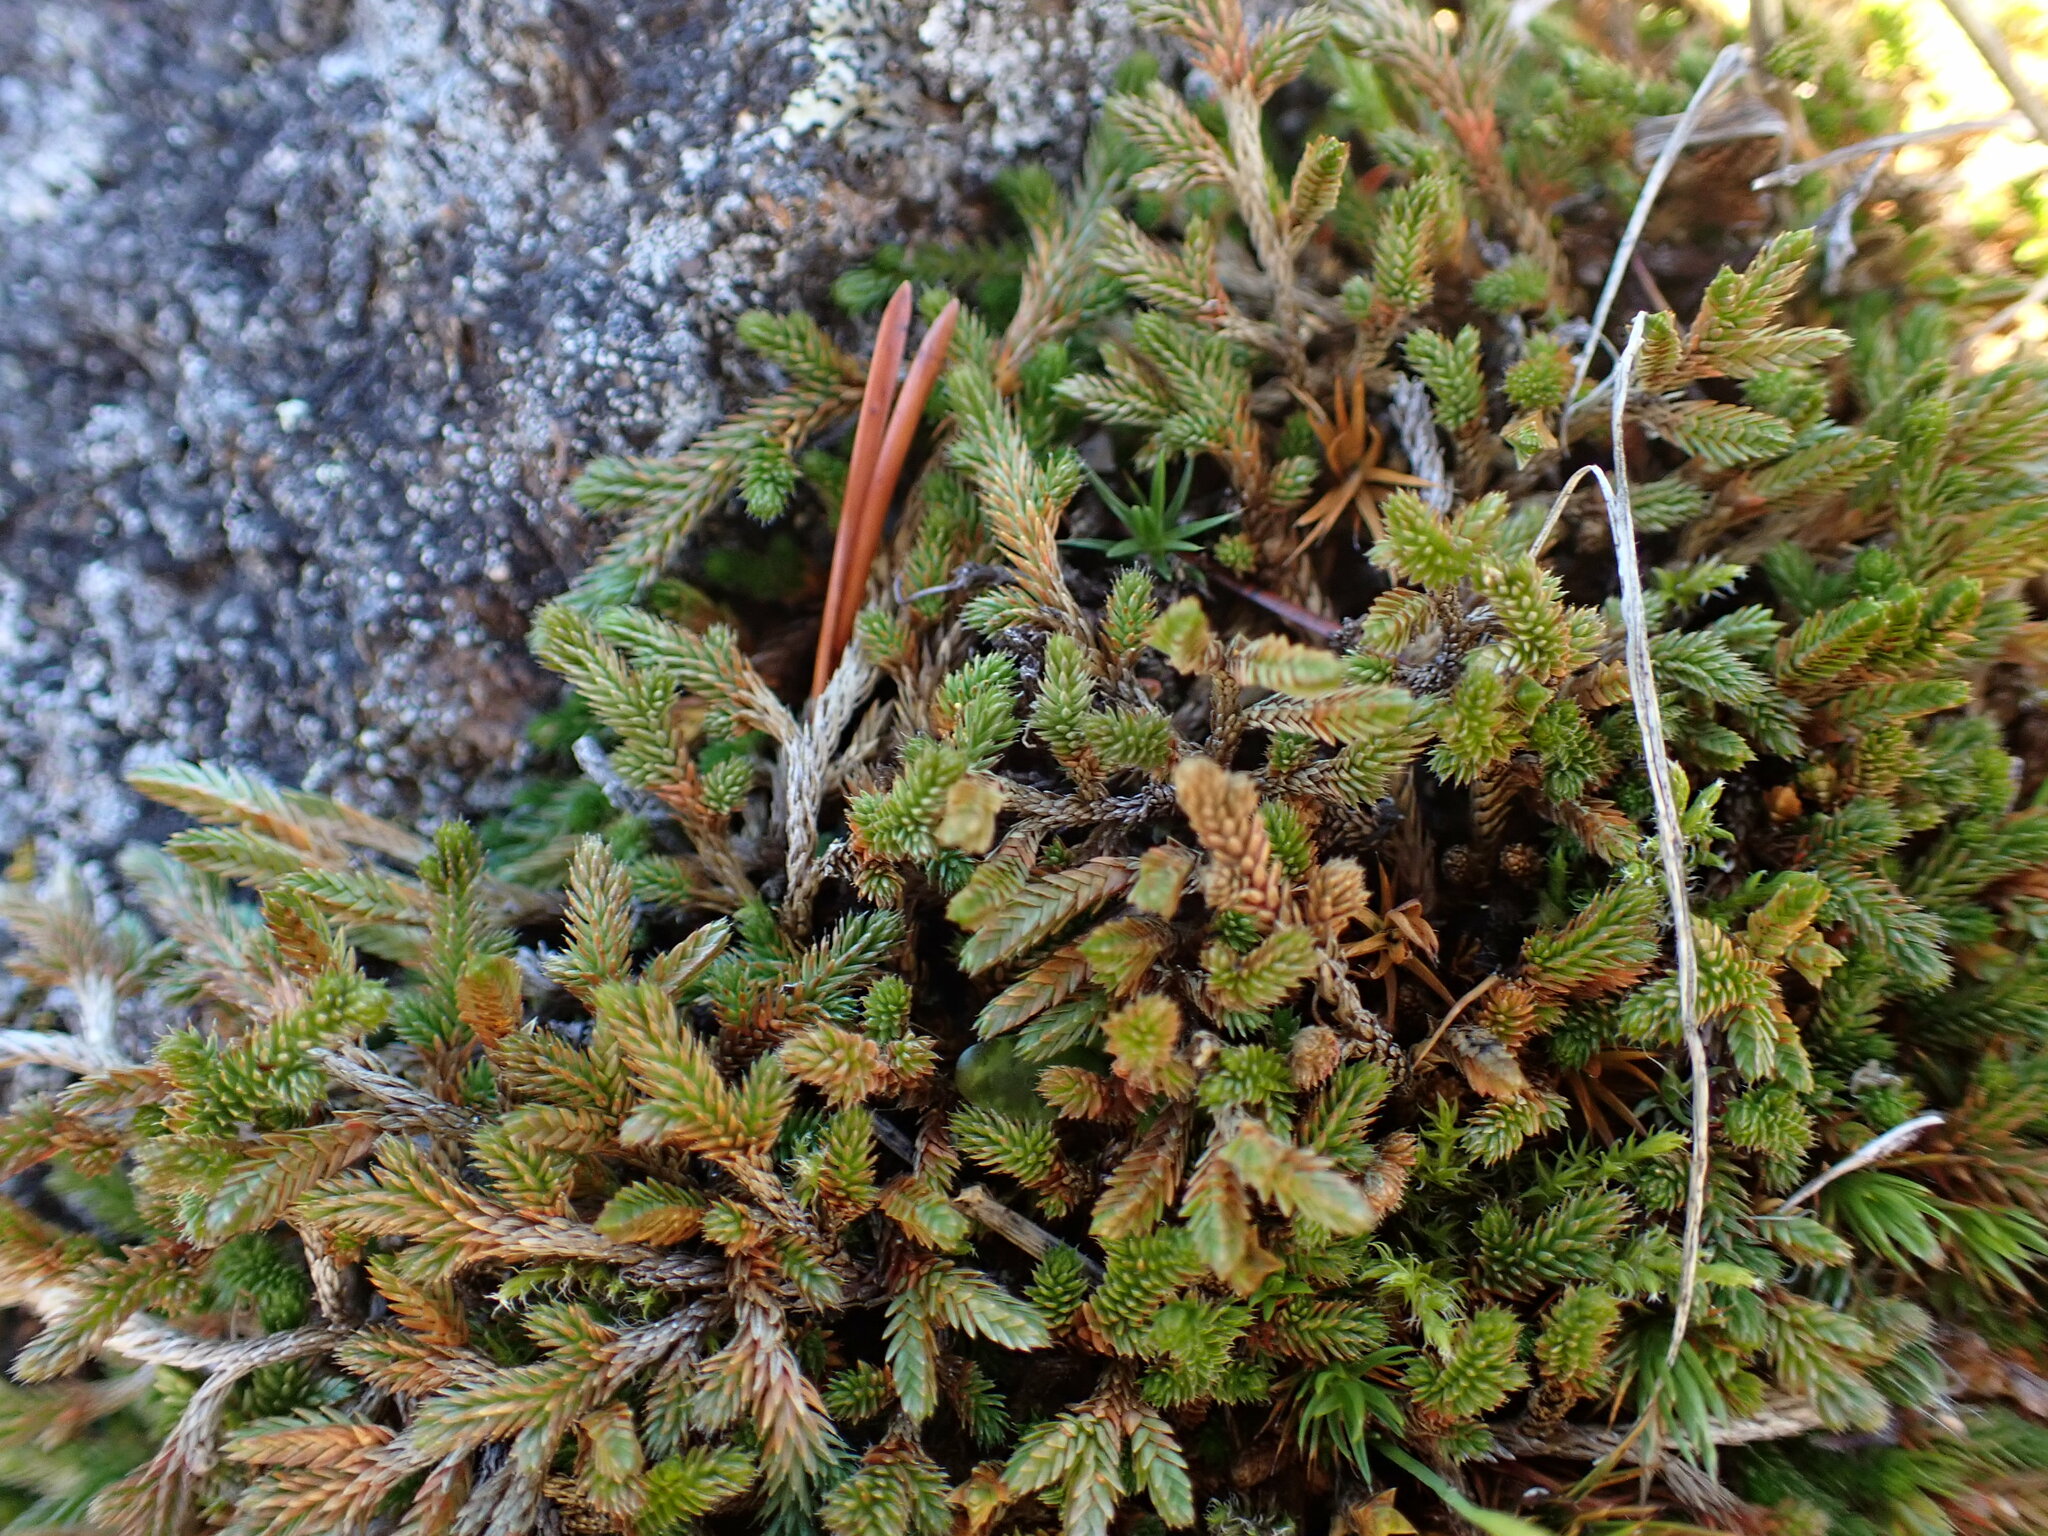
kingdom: Plantae
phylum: Tracheophyta
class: Lycopodiopsida
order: Selaginellales
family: Selaginellaceae
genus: Selaginella
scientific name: Selaginella wallacei
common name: Wallace's selaginella
